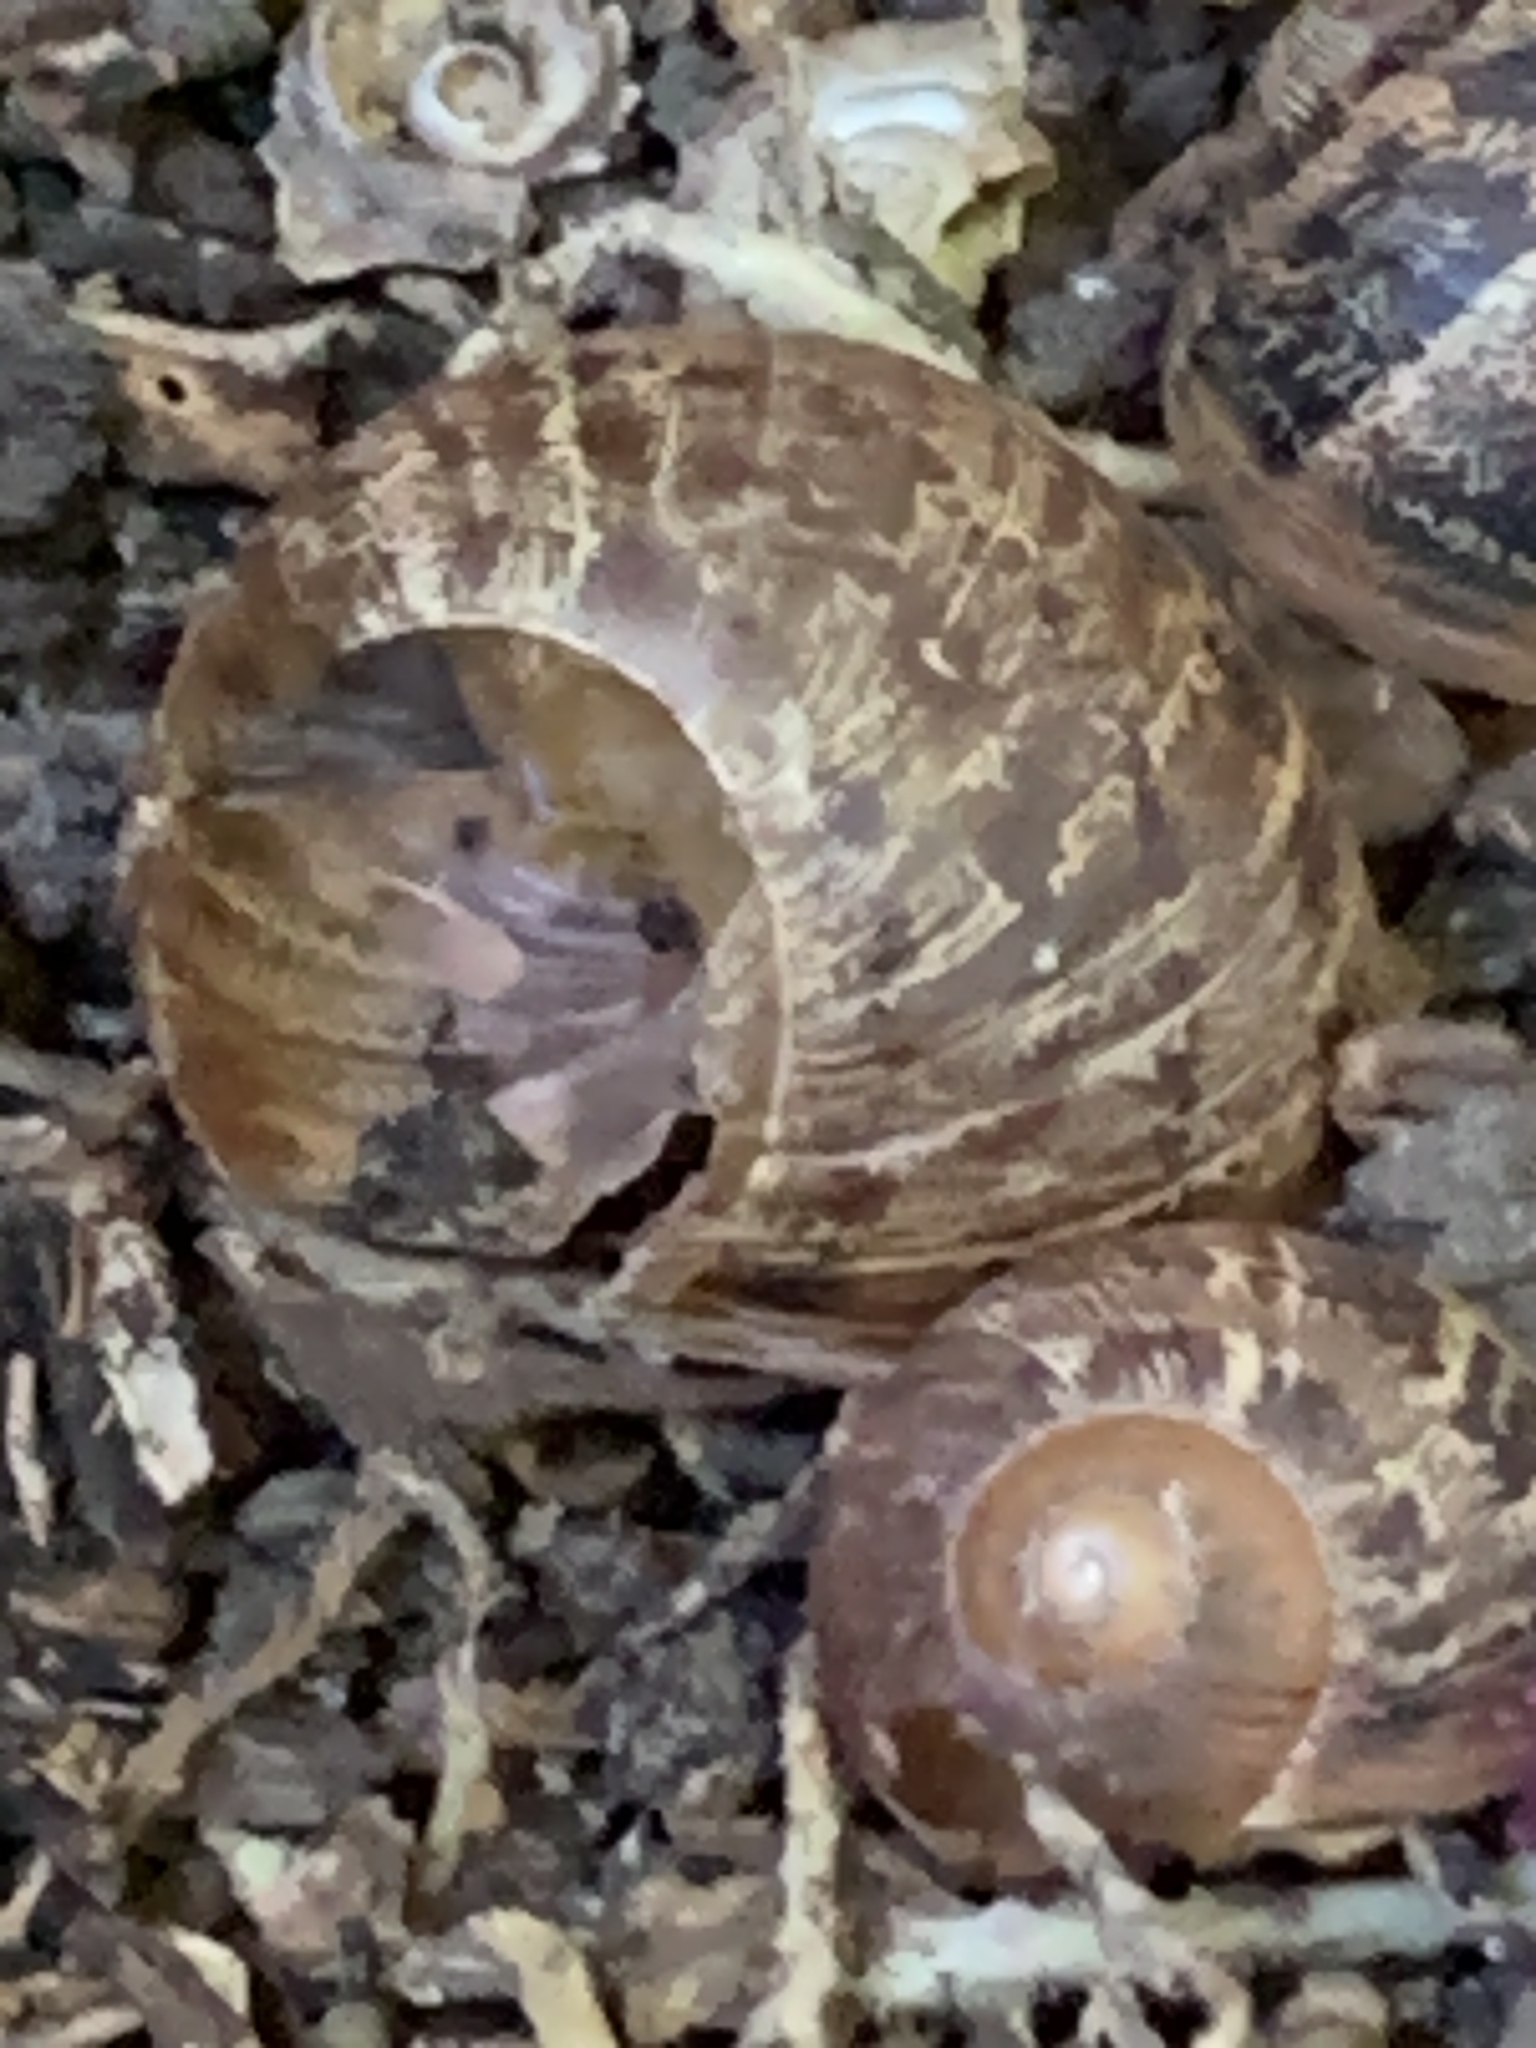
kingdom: Animalia
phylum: Mollusca
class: Gastropoda
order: Stylommatophora
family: Helicidae
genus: Cornu
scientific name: Cornu aspersum
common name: Brown garden snail
